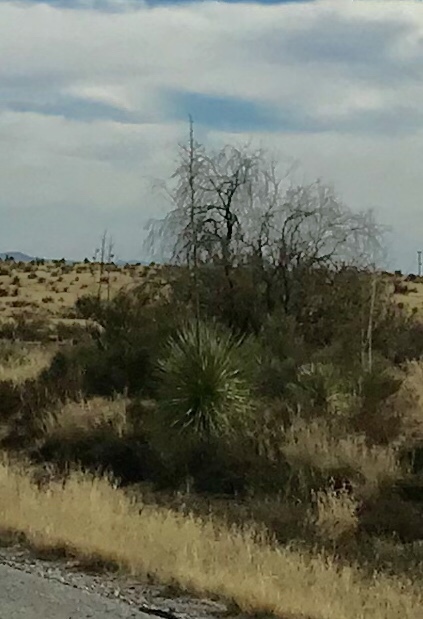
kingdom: Plantae
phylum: Tracheophyta
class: Liliopsida
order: Asparagales
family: Asparagaceae
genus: Yucca
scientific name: Yucca elata
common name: Palmella
